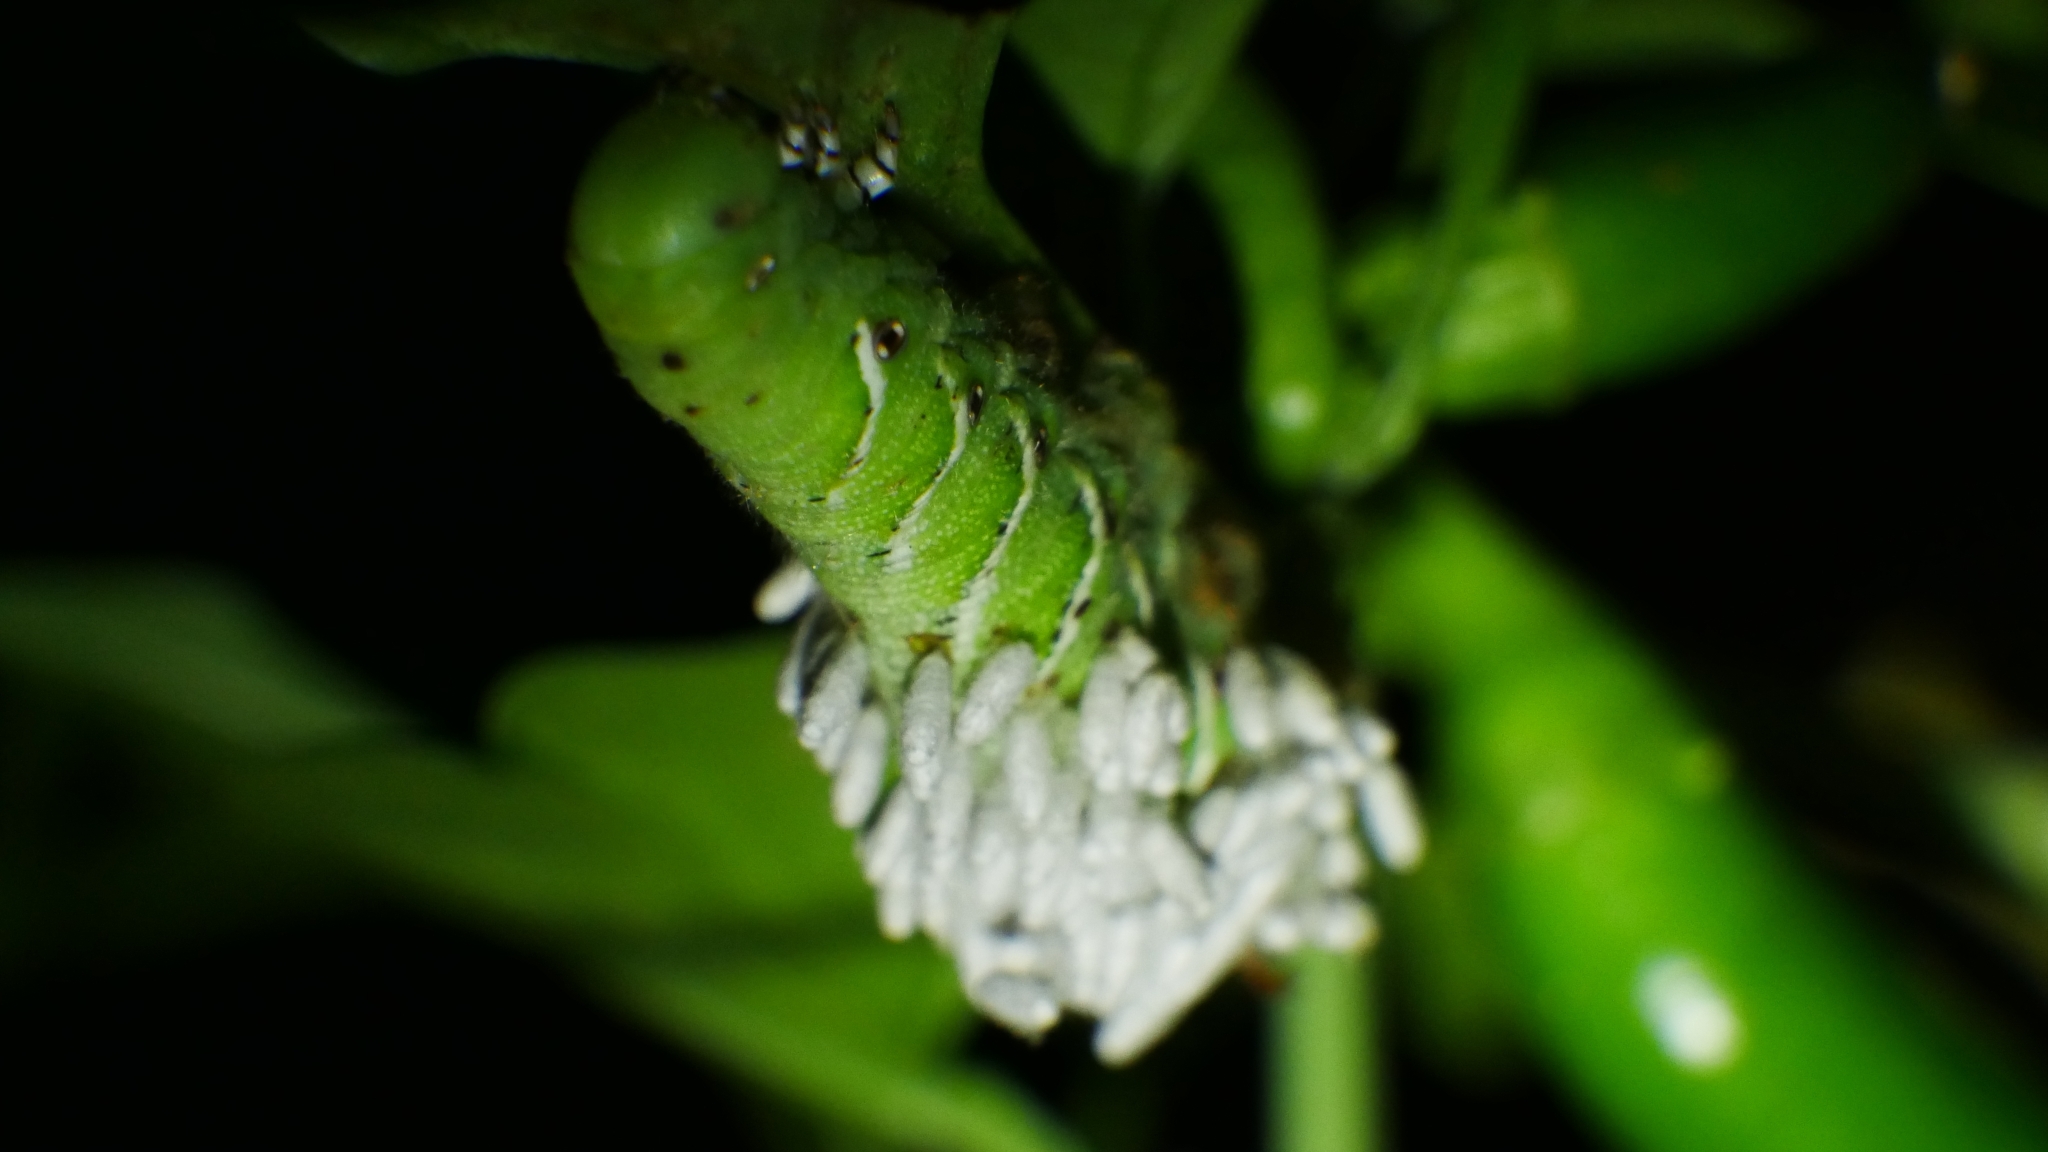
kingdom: Animalia
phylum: Arthropoda
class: Insecta
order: Hymenoptera
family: Braconidae
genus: Cotesia
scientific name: Cotesia congregata
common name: Hornworm parasitoid wasp
